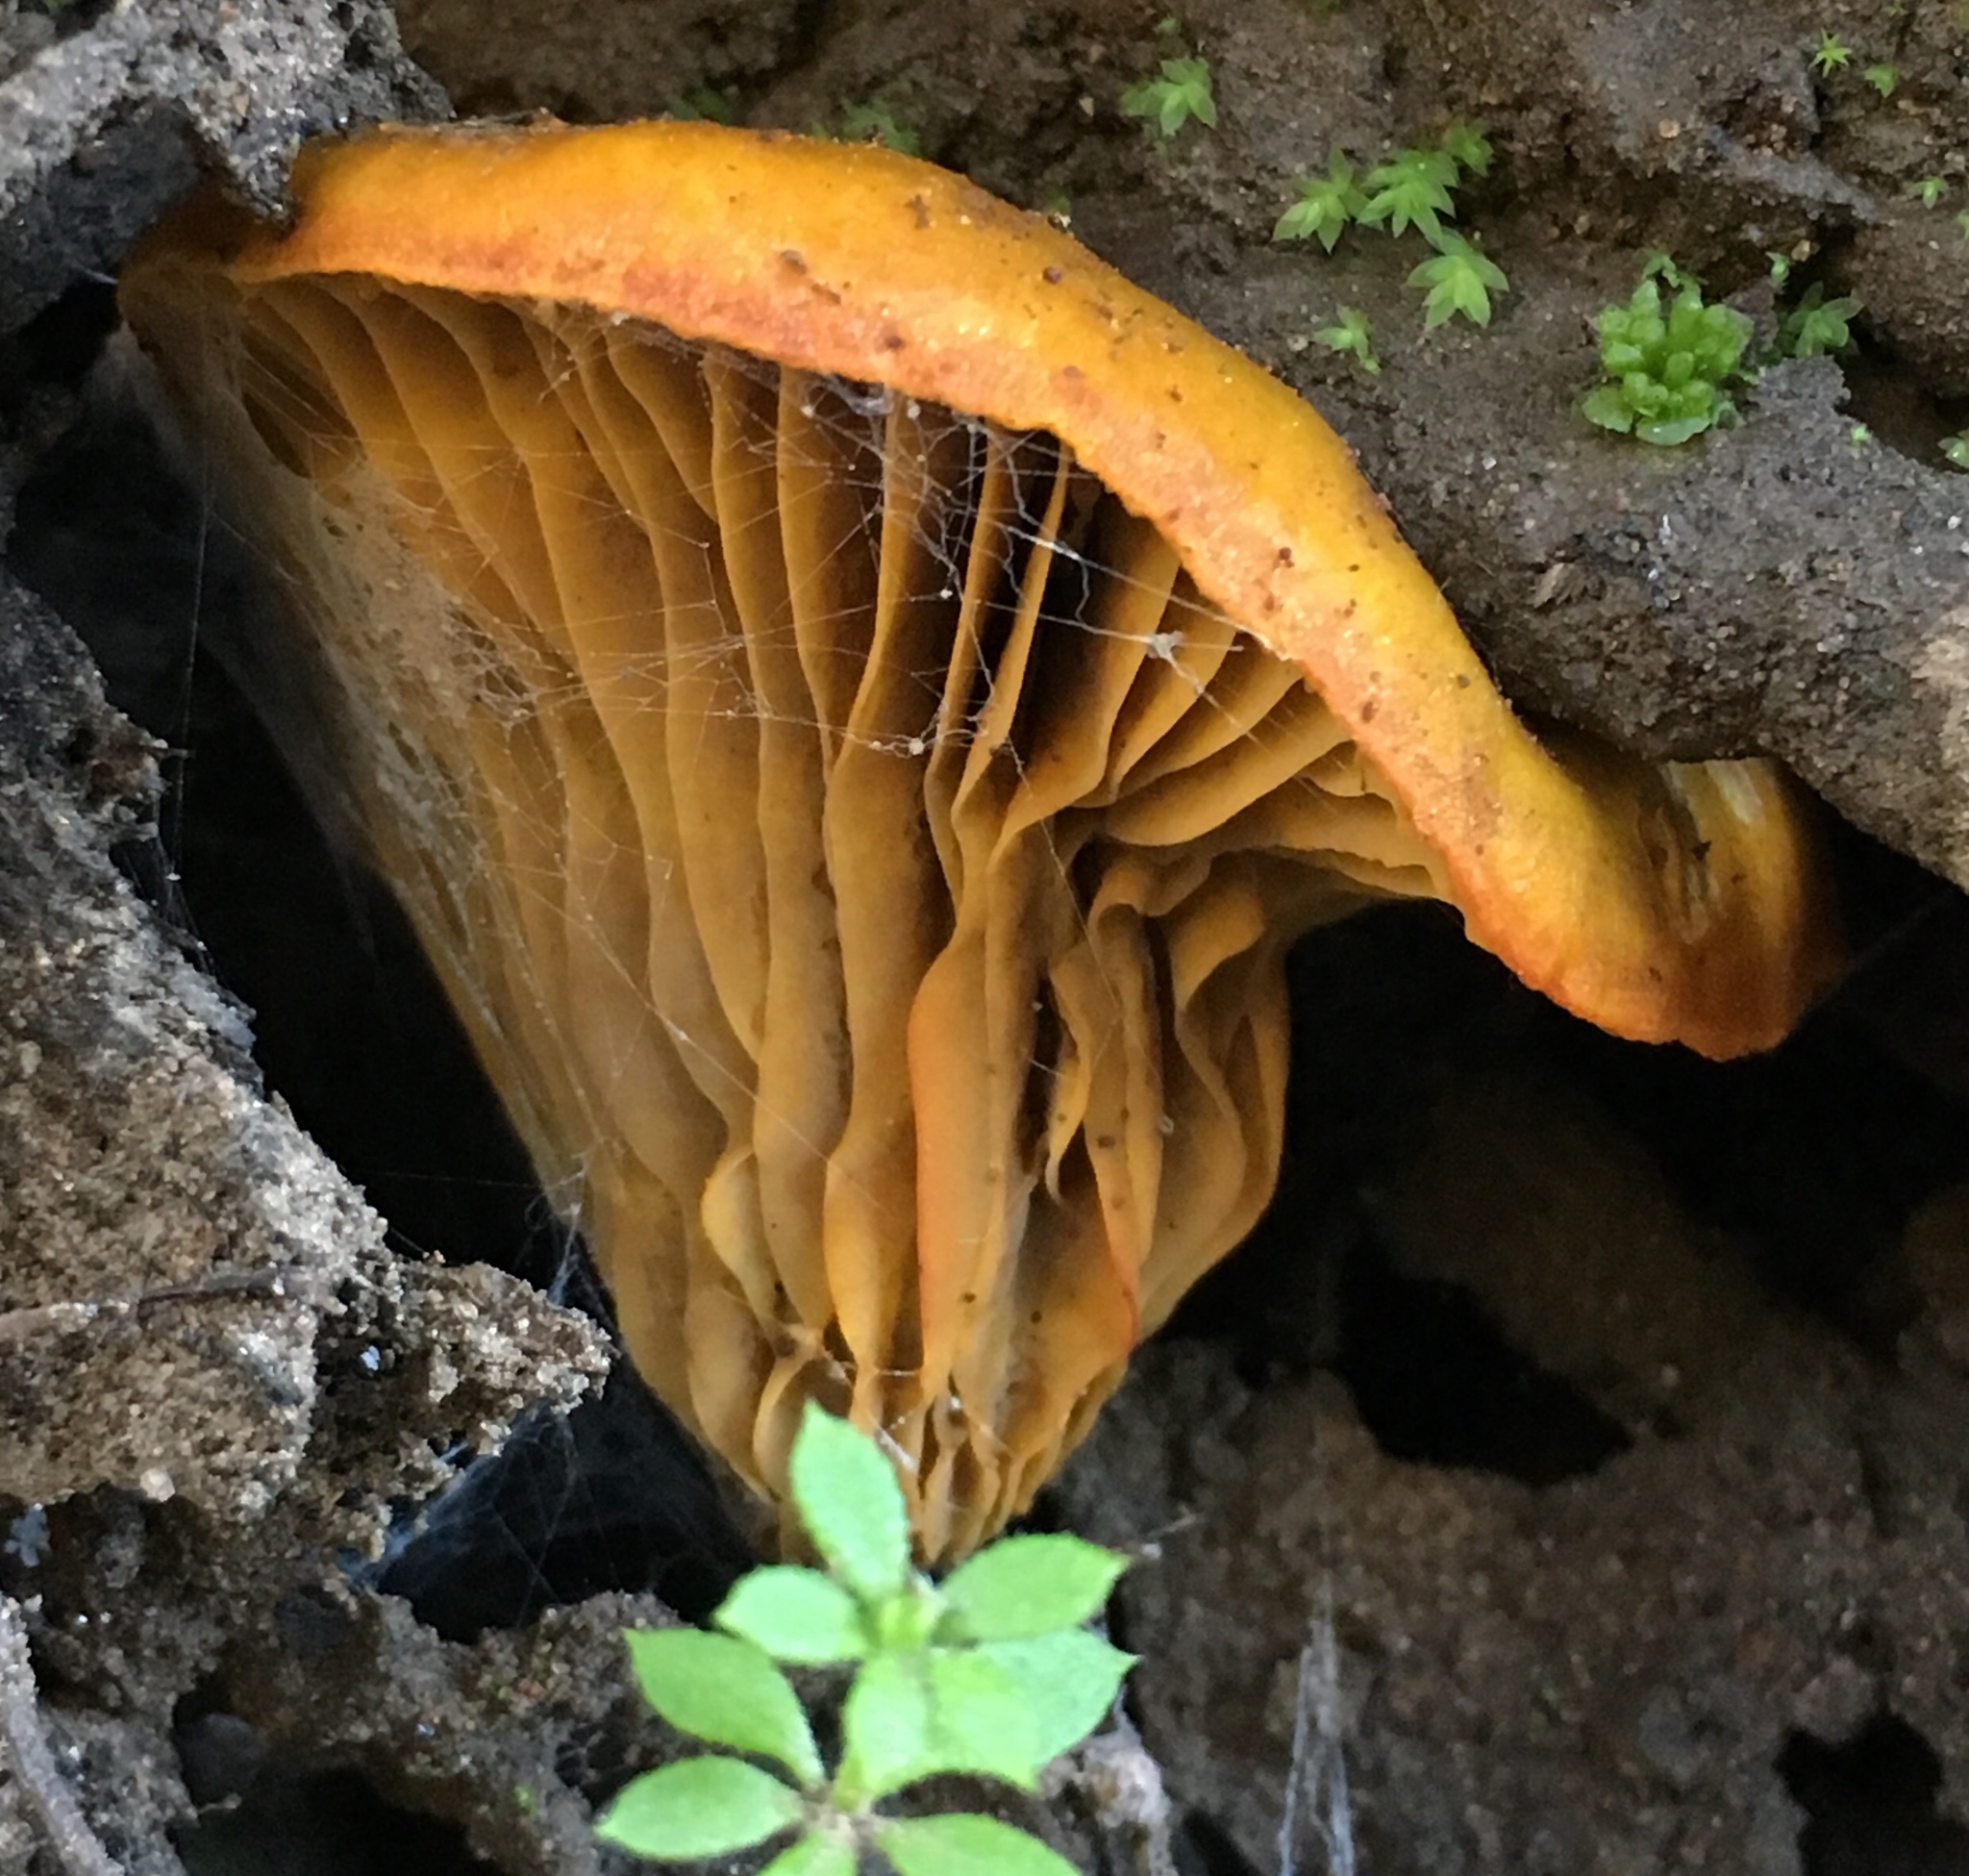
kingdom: Fungi
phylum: Basidiomycota
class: Agaricomycetes
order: Agaricales
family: Omphalotaceae
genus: Omphalotus
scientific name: Omphalotus olivascens
